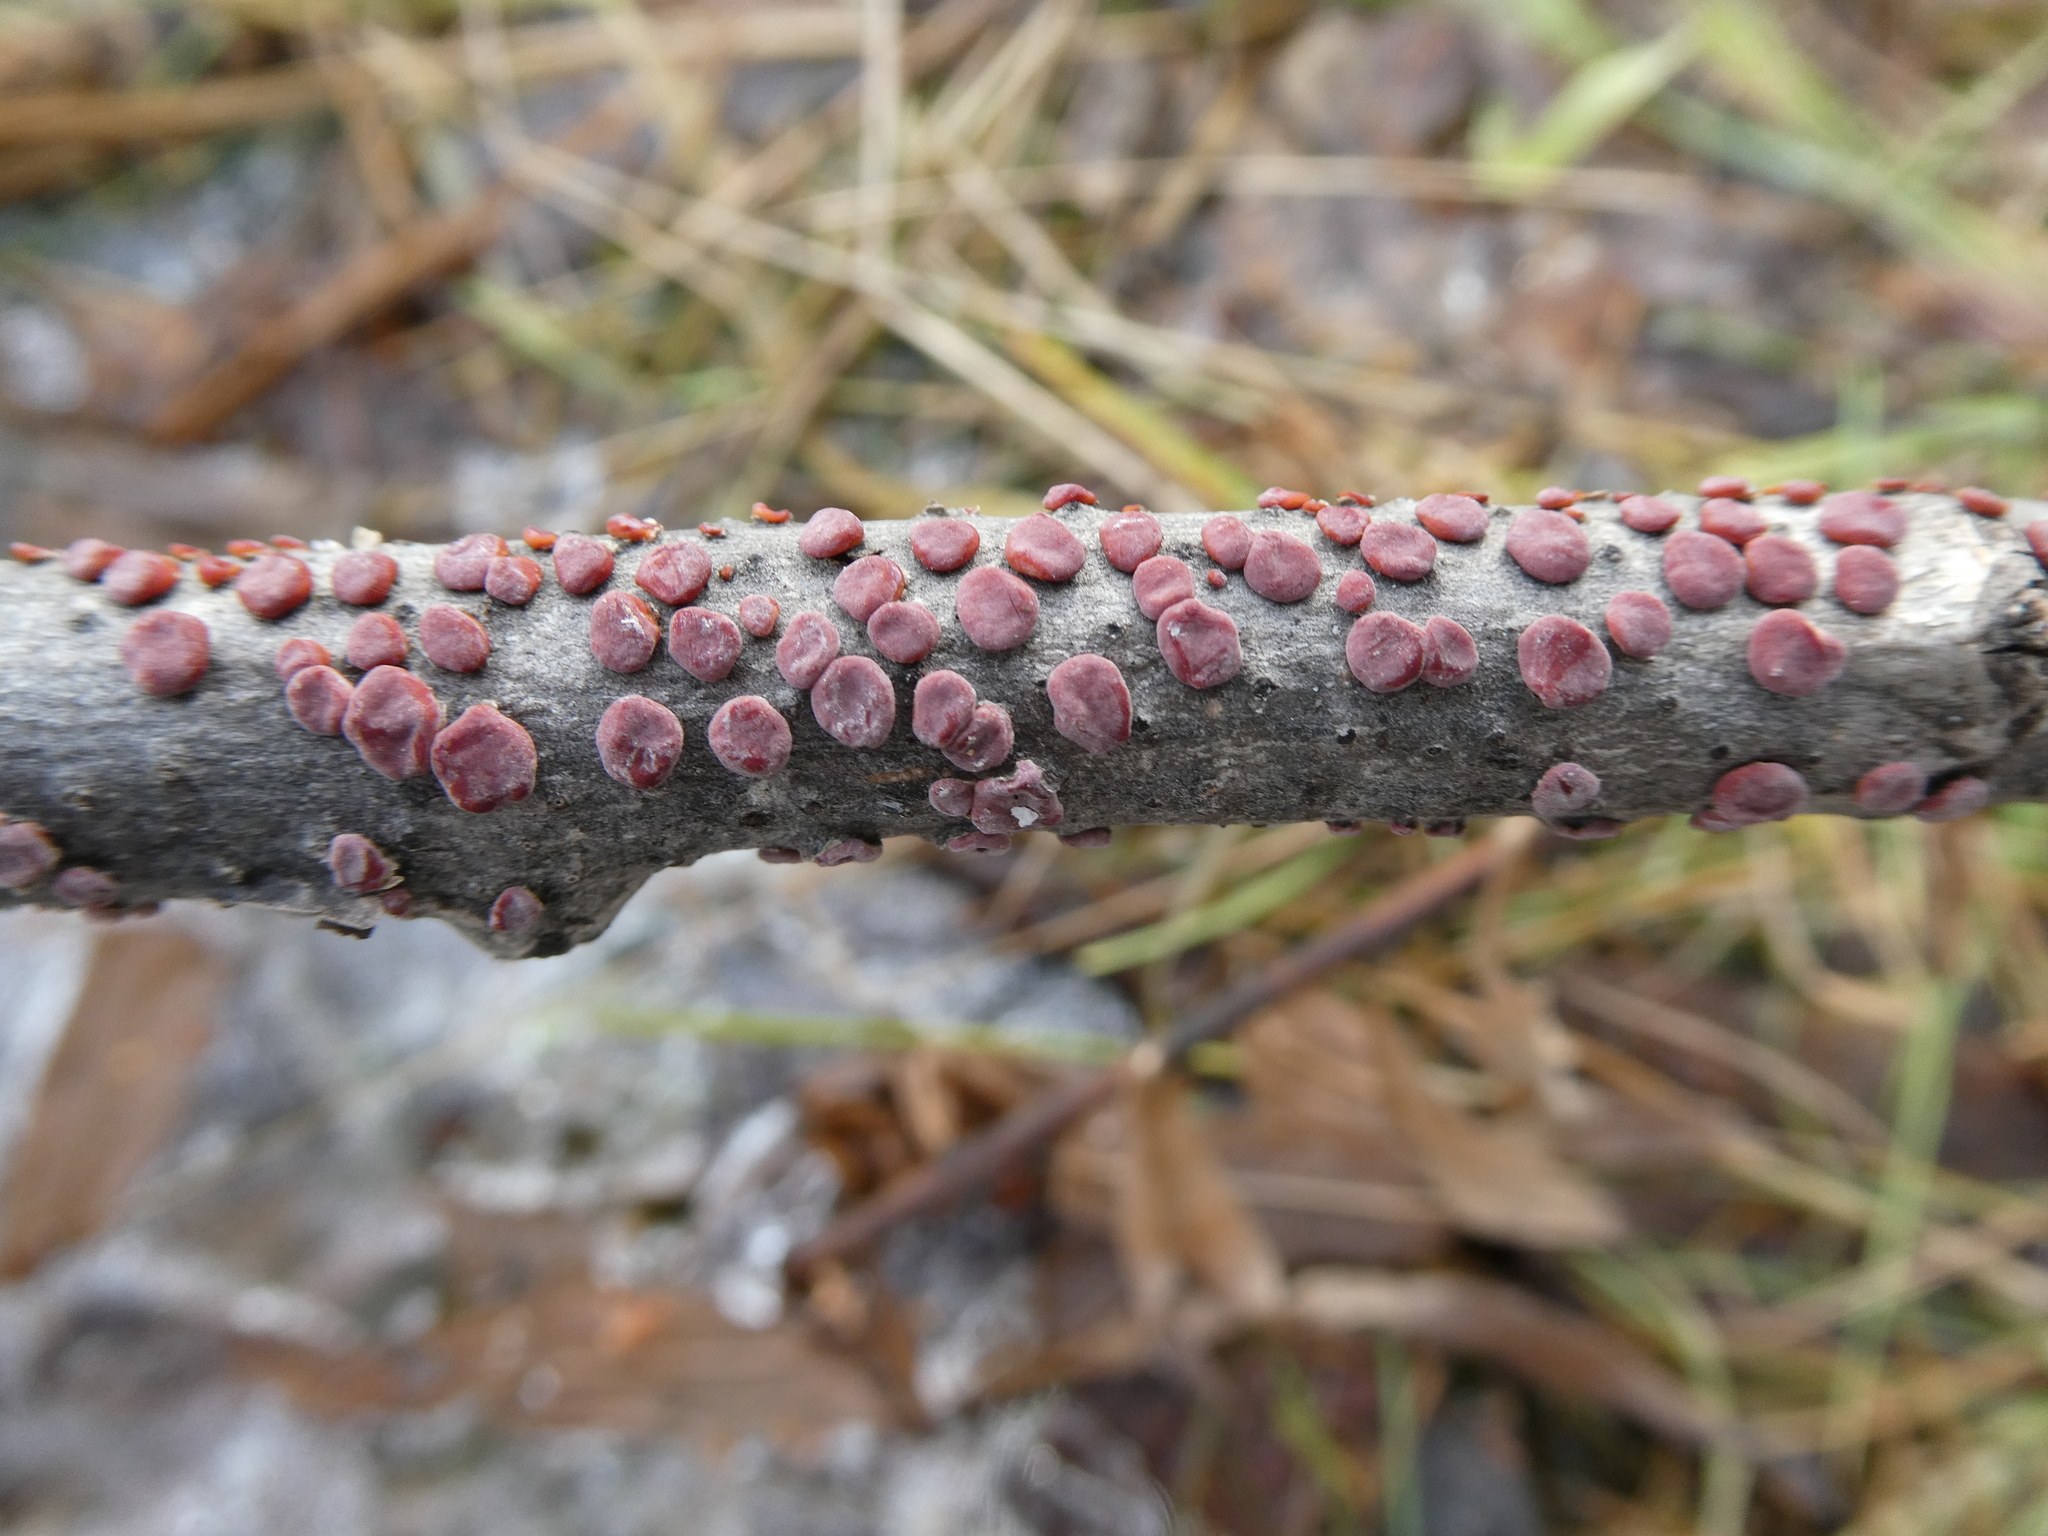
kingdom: Fungi
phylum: Basidiomycota
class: Agaricomycetes
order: Russulales
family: Peniophoraceae
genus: Peniophora
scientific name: Peniophora rufa
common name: Red tree brain fungus
